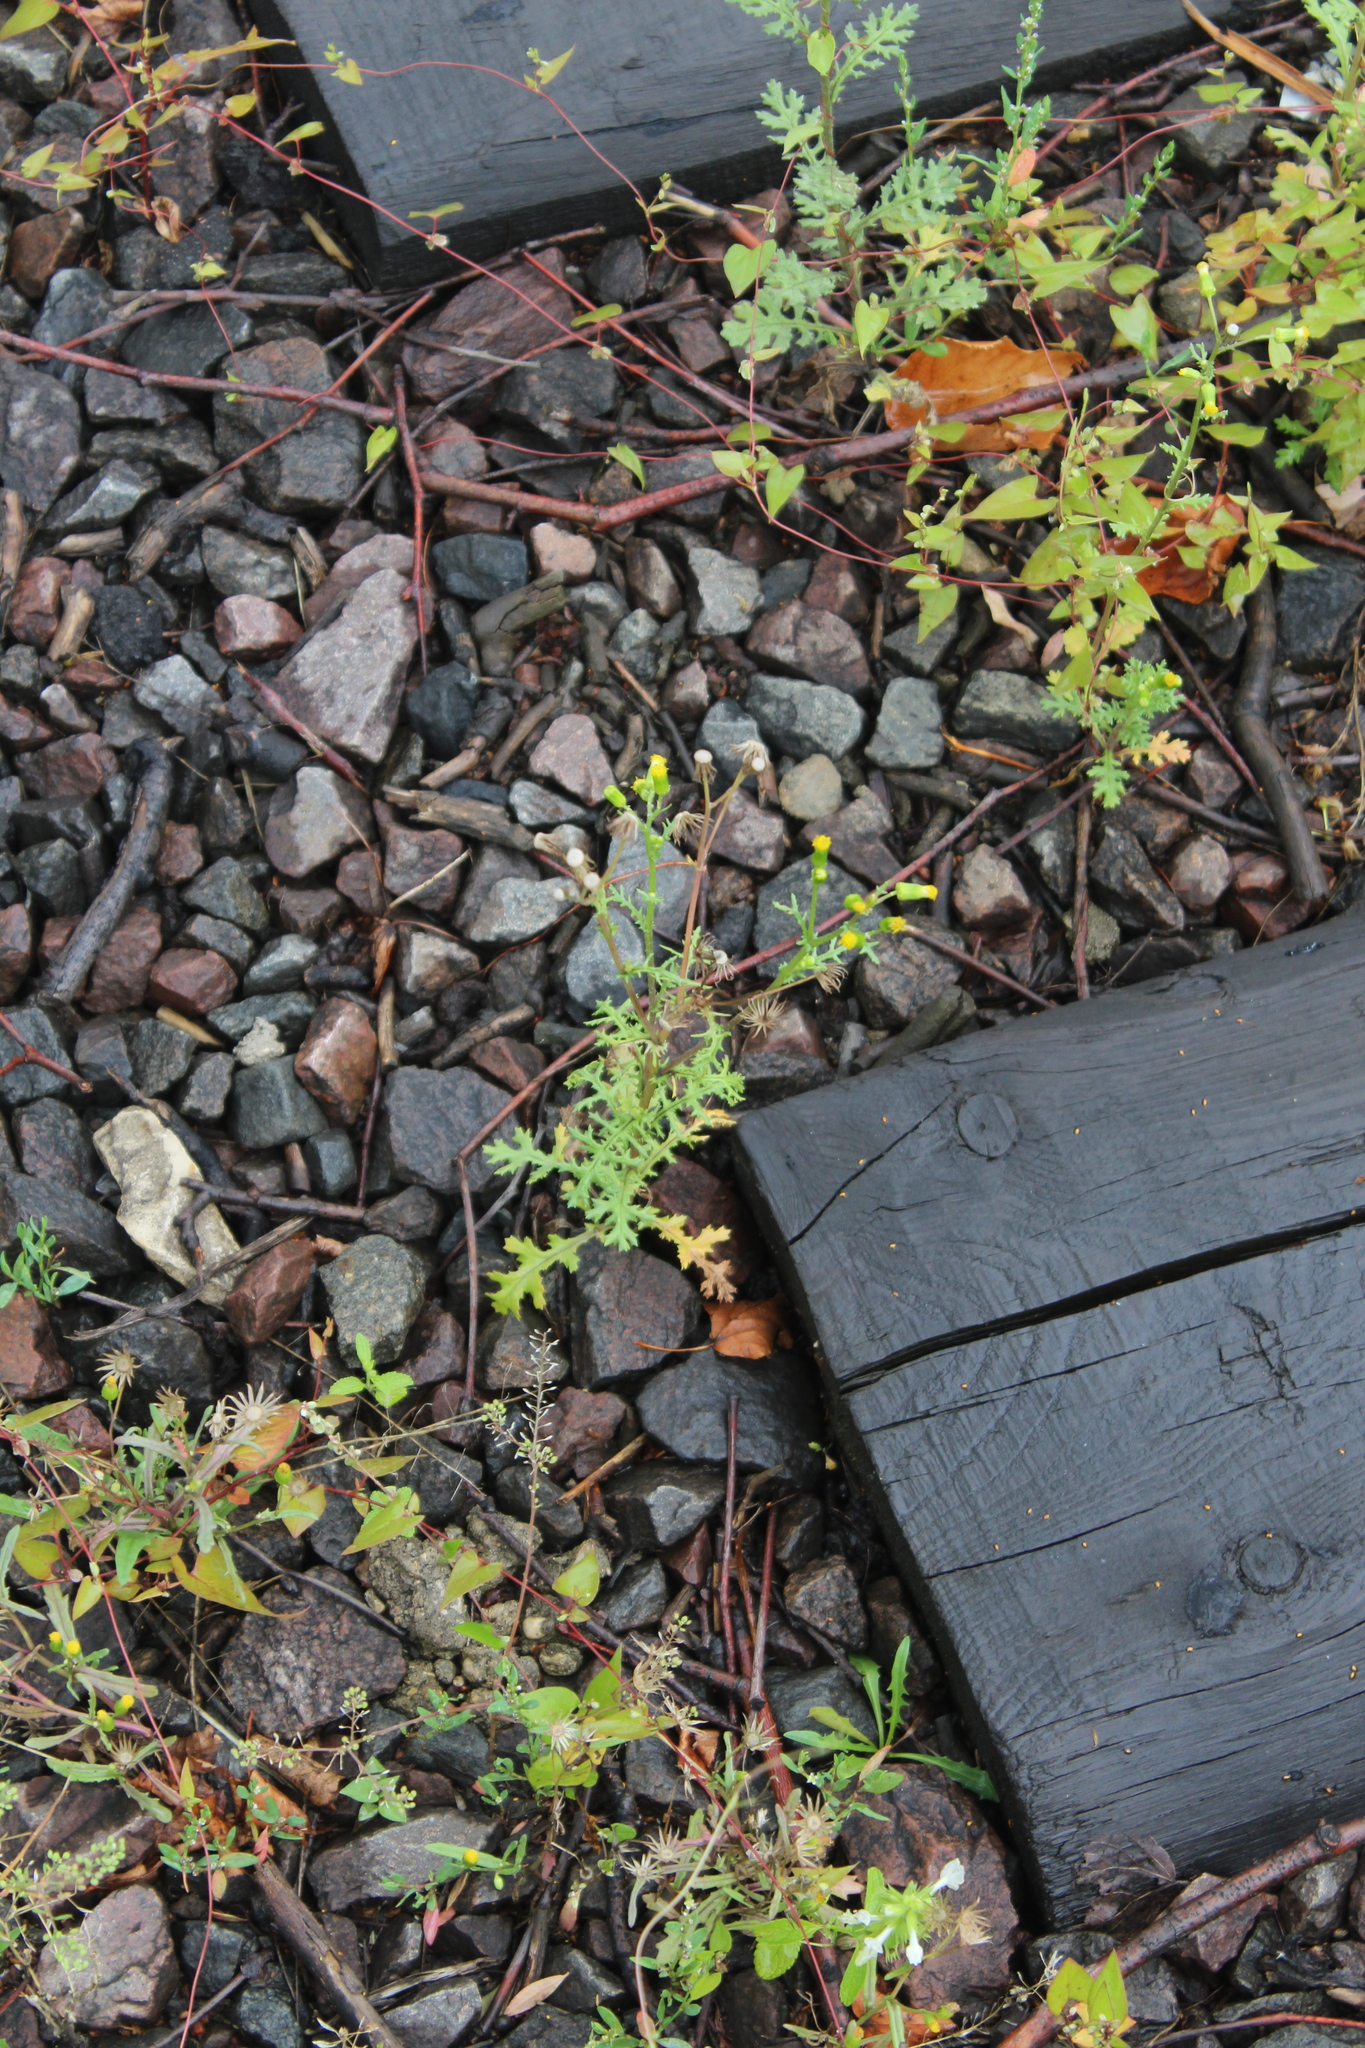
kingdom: Plantae
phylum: Tracheophyta
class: Magnoliopsida
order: Asterales
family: Asteraceae
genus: Senecio
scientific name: Senecio vulgaris
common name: Old-man-in-the-spring
